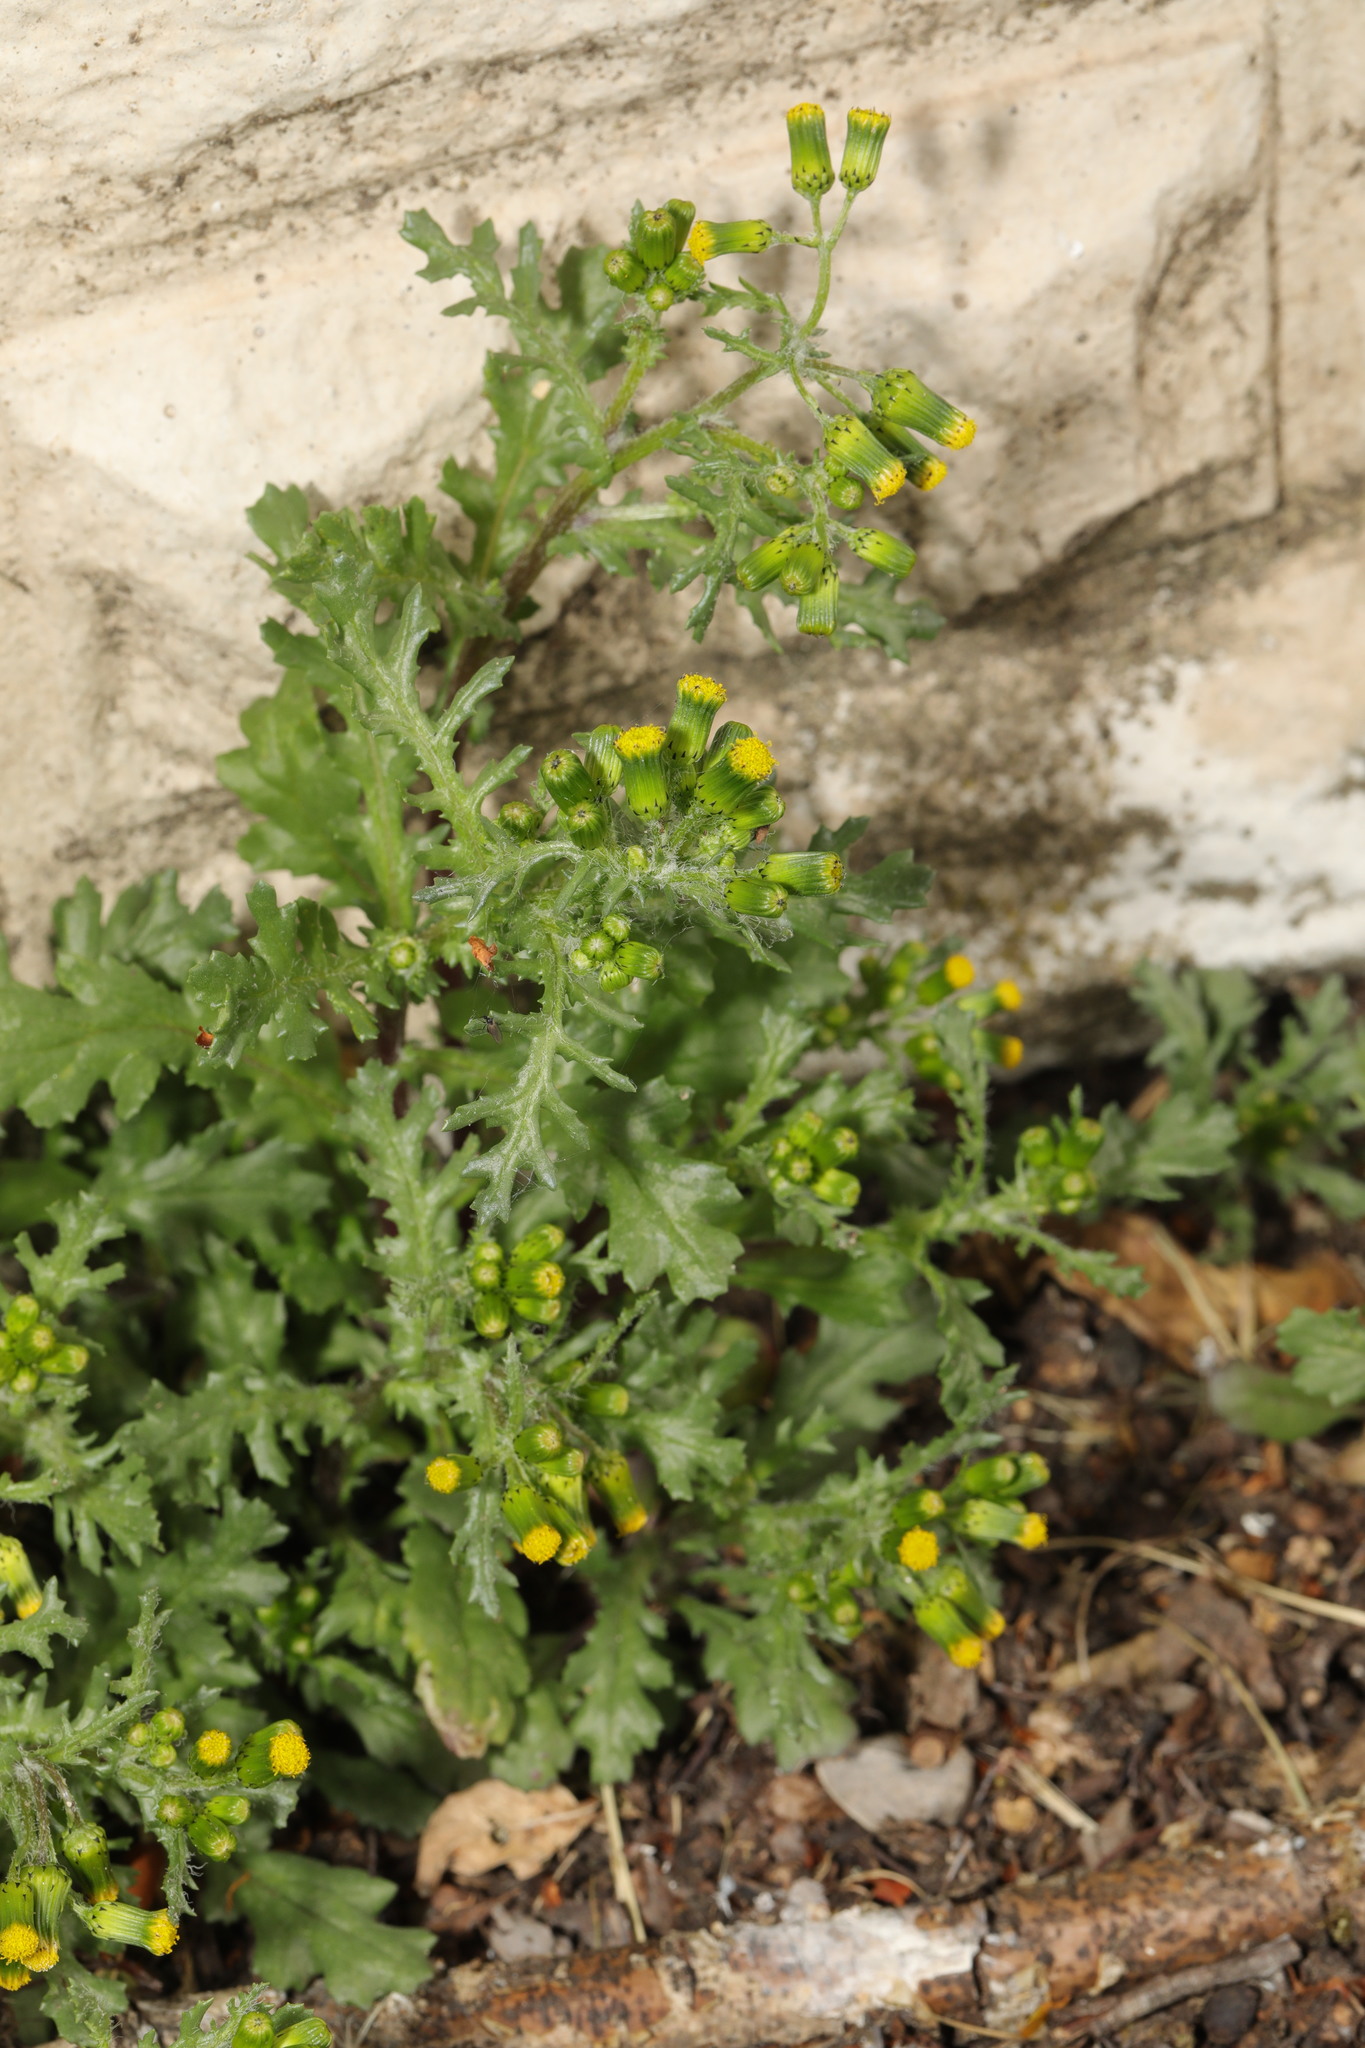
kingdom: Plantae
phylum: Tracheophyta
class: Magnoliopsida
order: Asterales
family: Asteraceae
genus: Senecio
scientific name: Senecio vulgaris
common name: Old-man-in-the-spring
